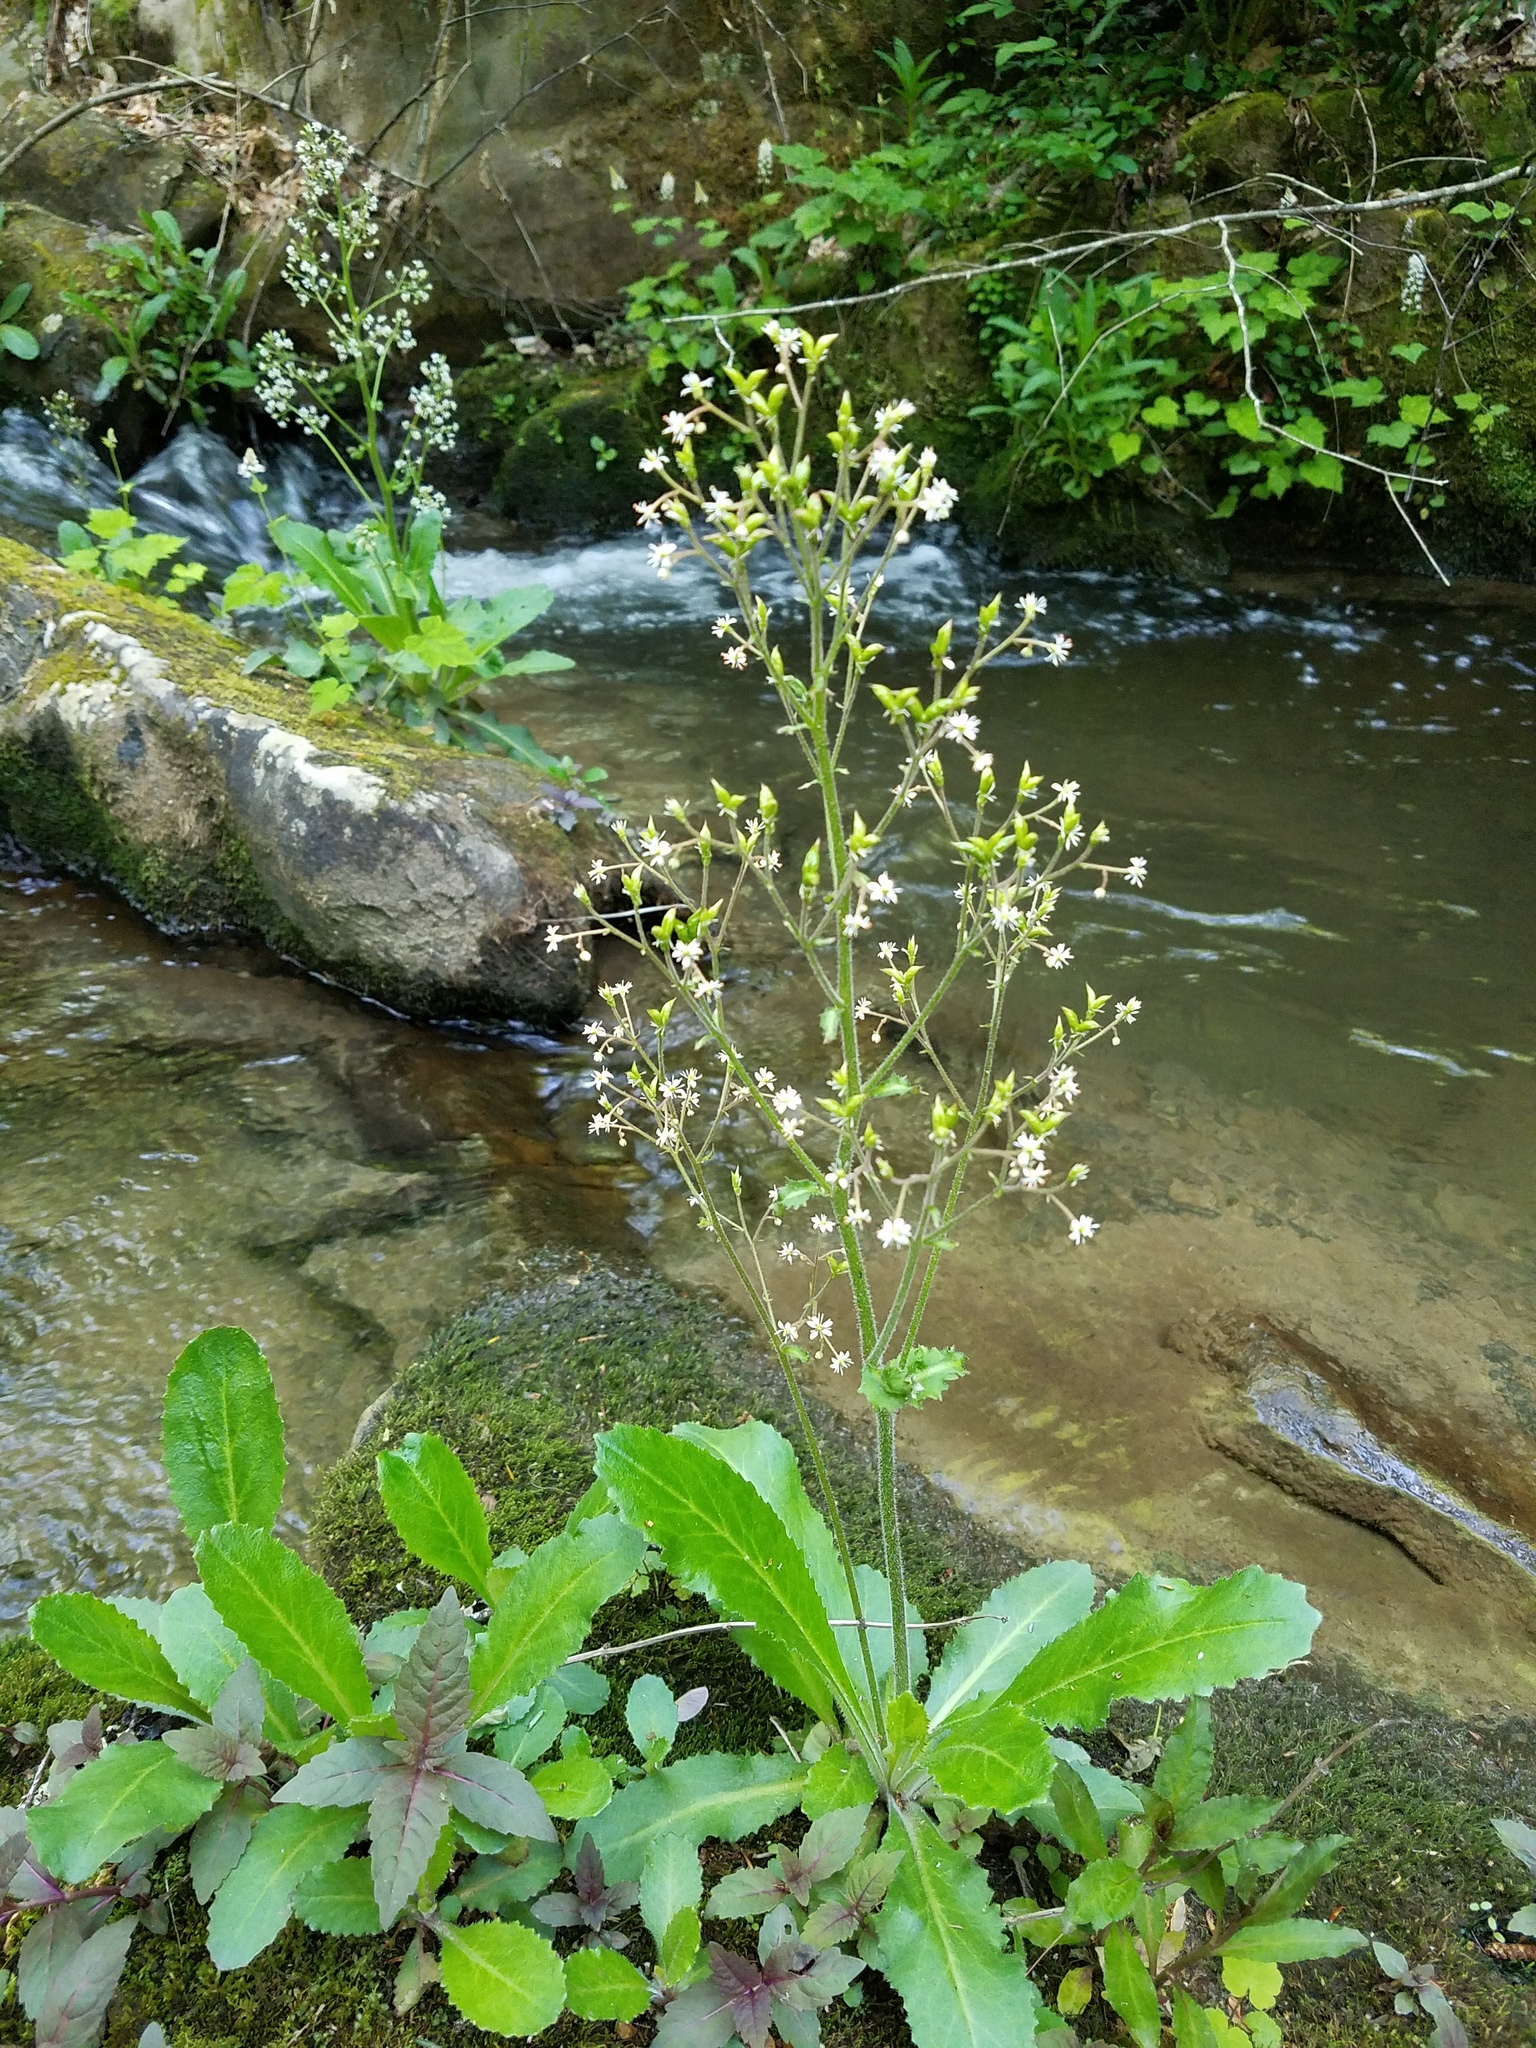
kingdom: Plantae
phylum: Tracheophyta
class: Magnoliopsida
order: Saxifragales
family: Saxifragaceae
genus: Micranthes
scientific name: Micranthes micranthidifolia
